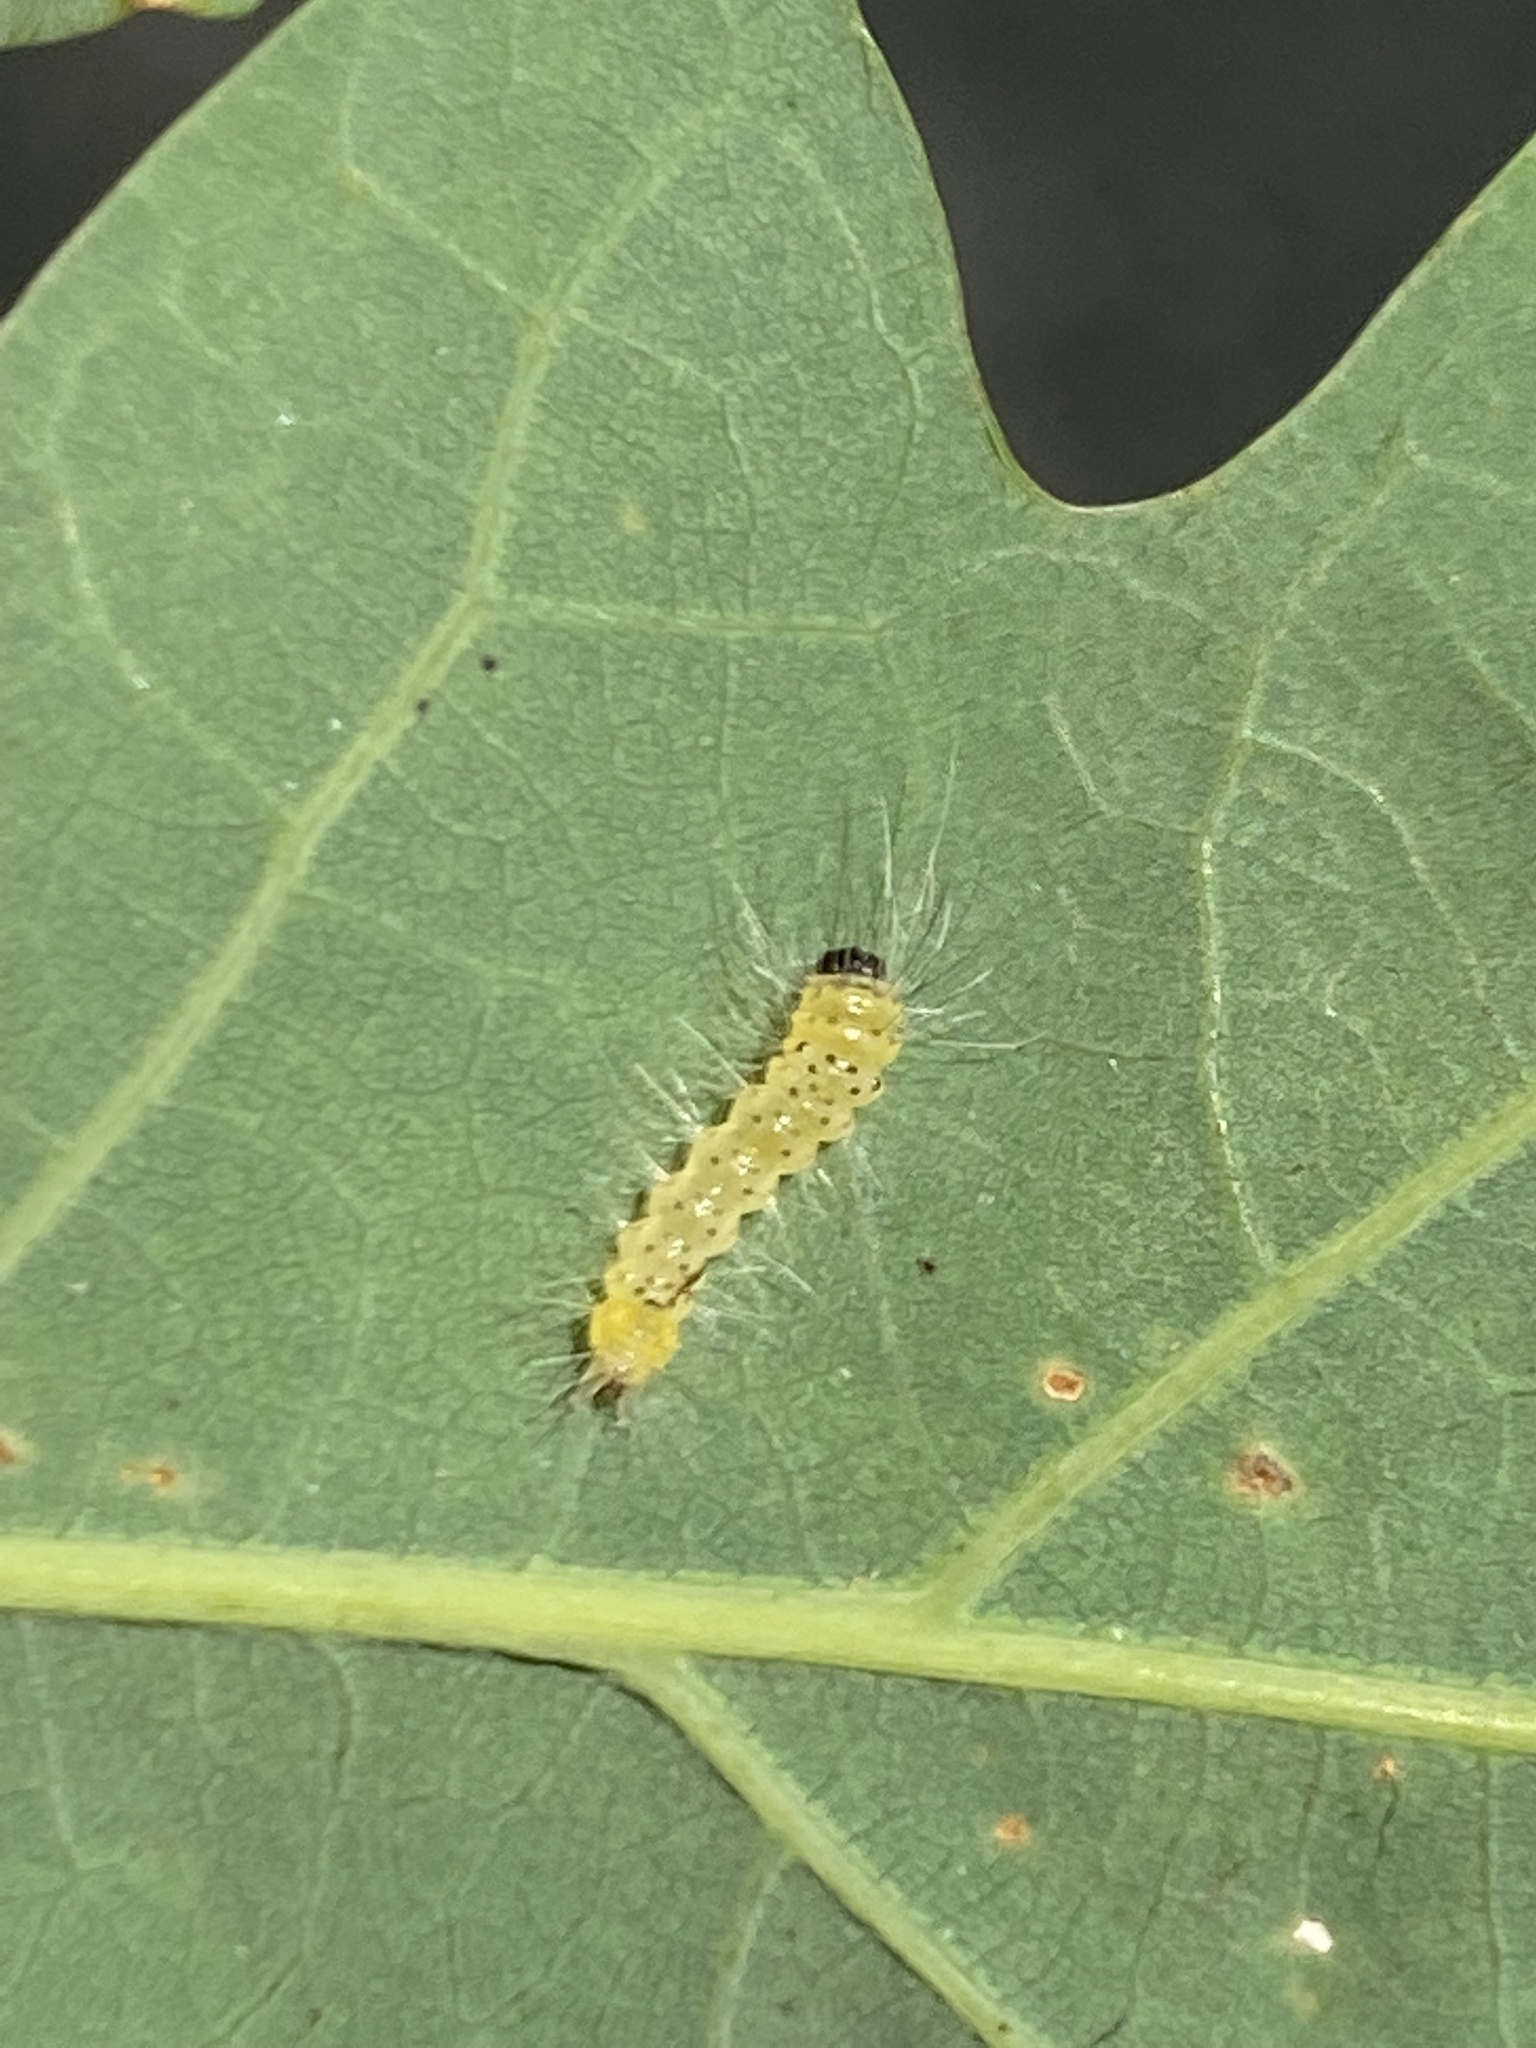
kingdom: Animalia
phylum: Arthropoda
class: Insecta
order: Lepidoptera
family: Erebidae
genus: Halysidota
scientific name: Halysidota tessellaris
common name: Banded tussock moth
